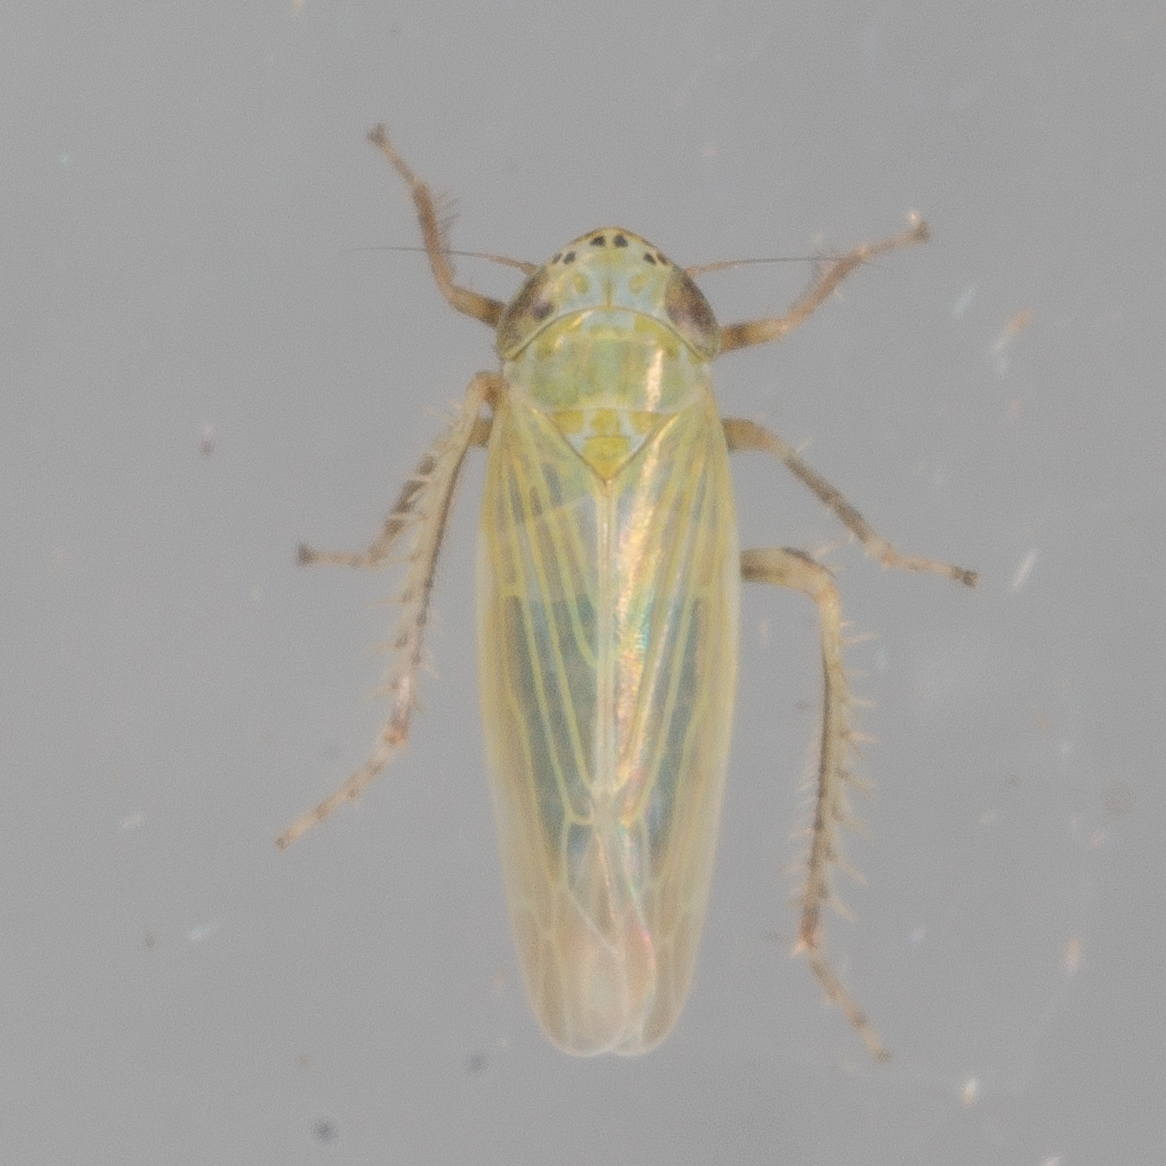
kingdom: Animalia
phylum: Arthropoda
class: Insecta
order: Hemiptera
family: Cicadellidae
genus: Graminella
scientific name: Graminella nigrifrons
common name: Blackfaced leafhopper
